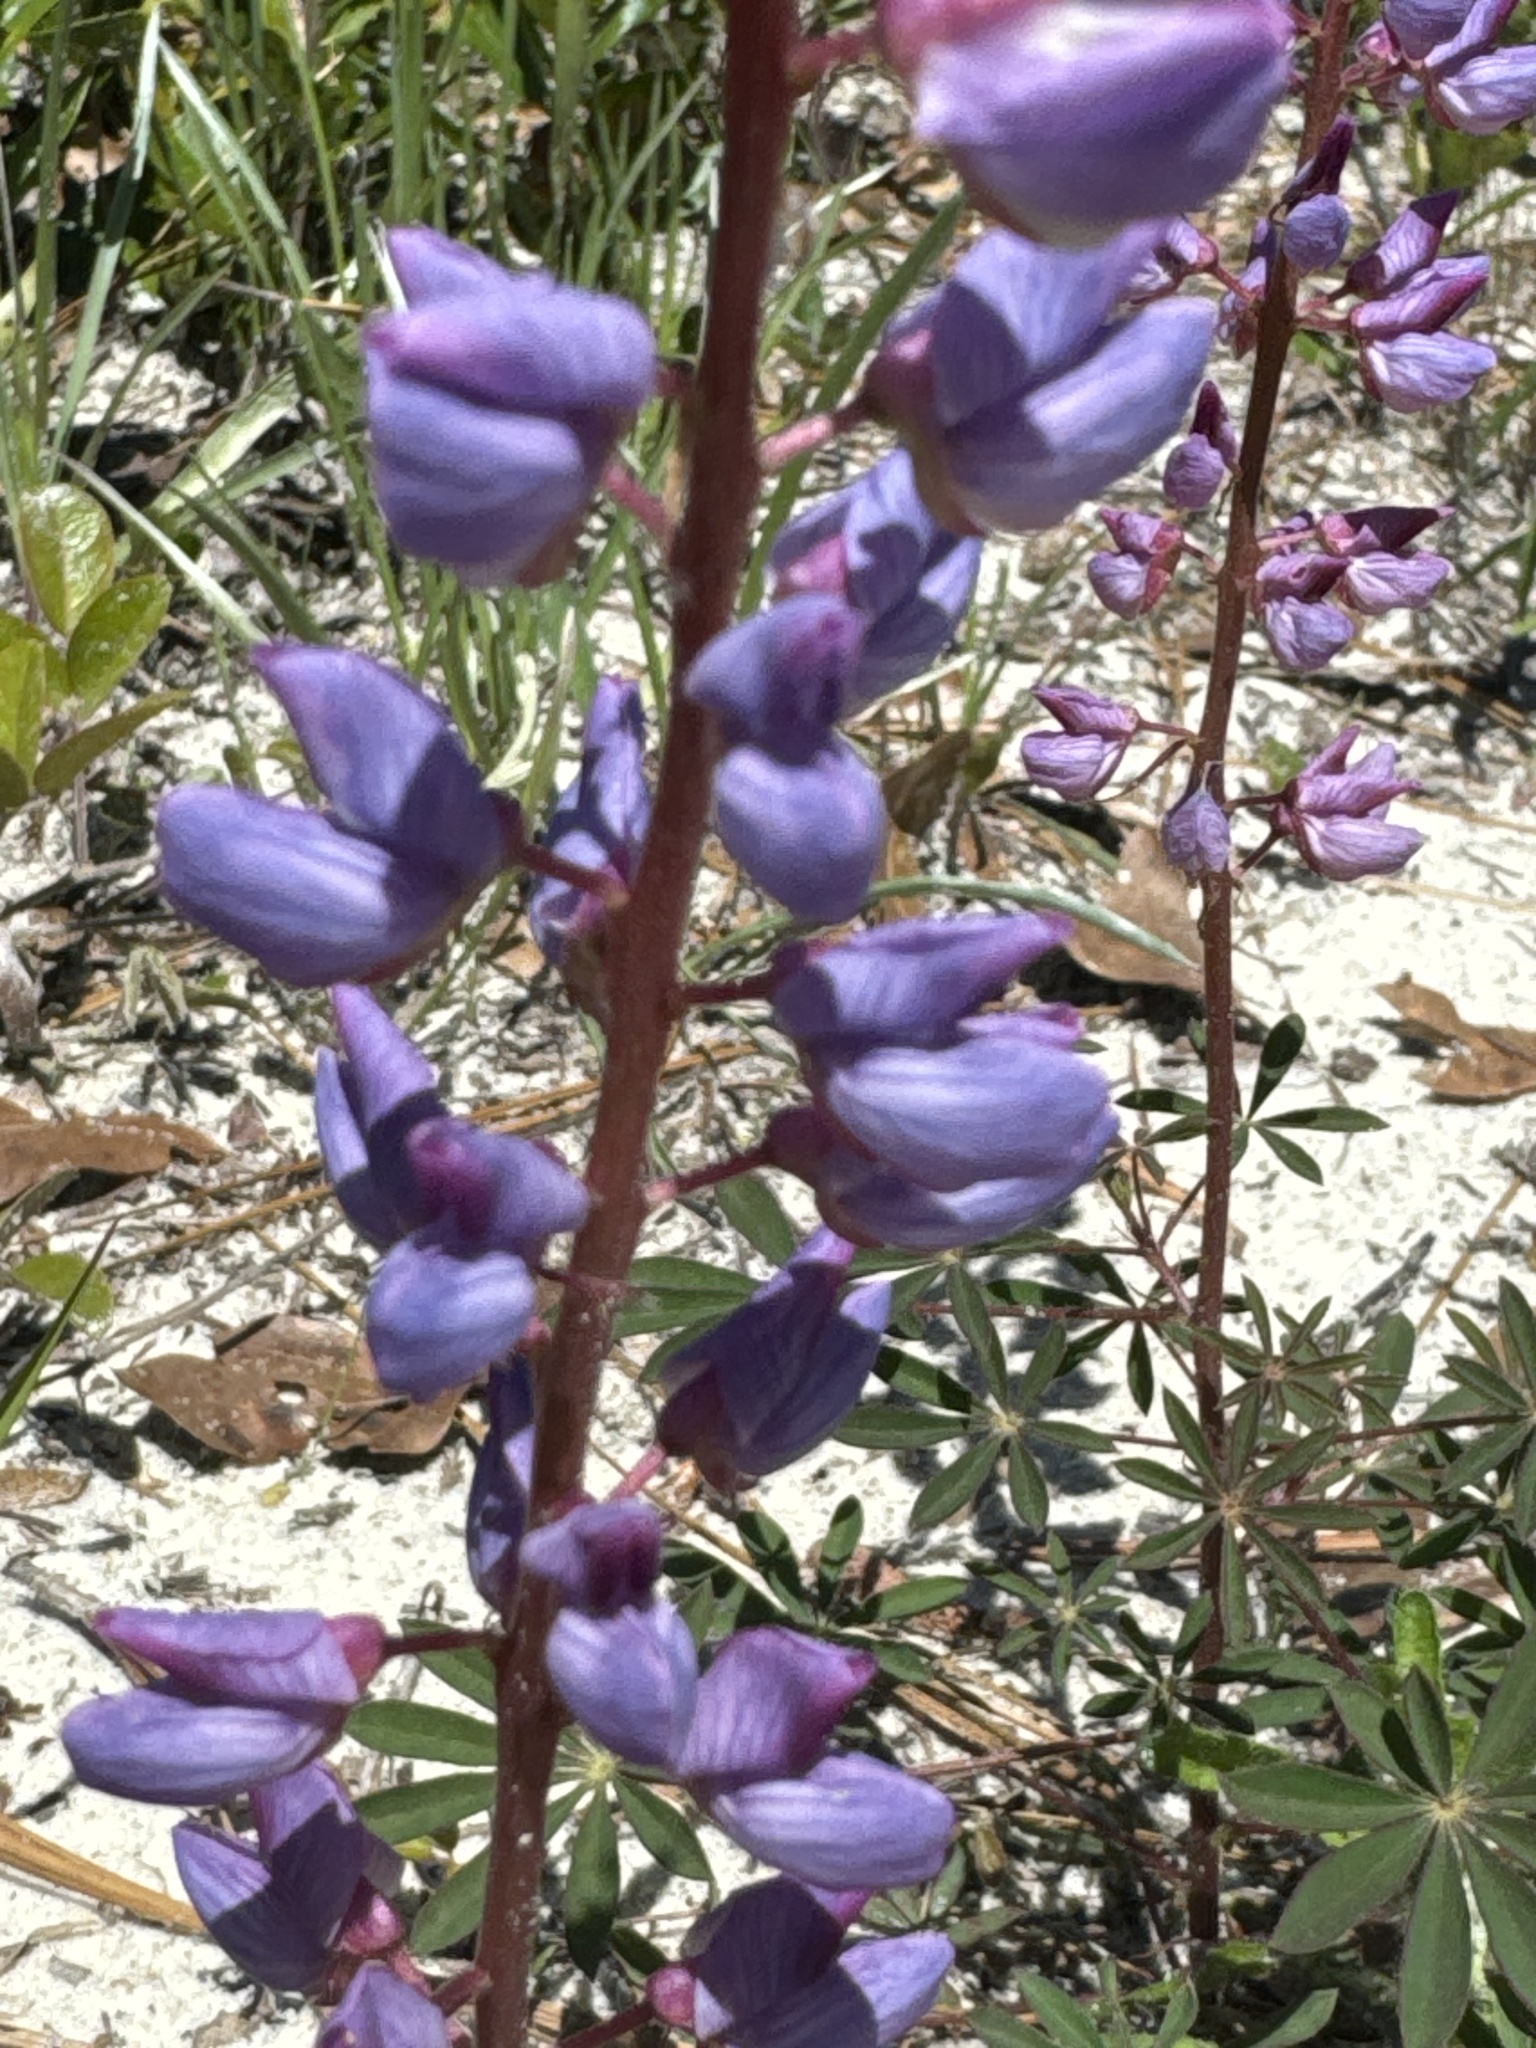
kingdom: Plantae
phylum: Tracheophyta
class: Magnoliopsida
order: Fabales
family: Fabaceae
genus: Lupinus
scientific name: Lupinus perennis
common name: Sundial lupine
